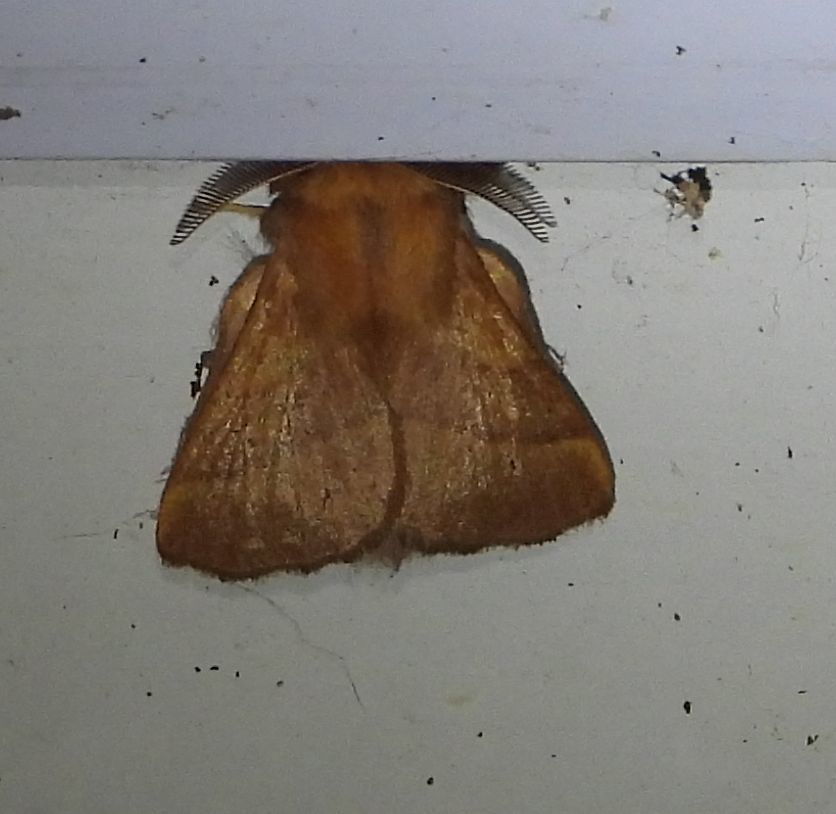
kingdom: Animalia
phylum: Arthropoda
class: Insecta
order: Lepidoptera
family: Lasiocampidae
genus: Malacosoma
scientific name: Malacosoma disstria
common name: Forest tent caterpillar
